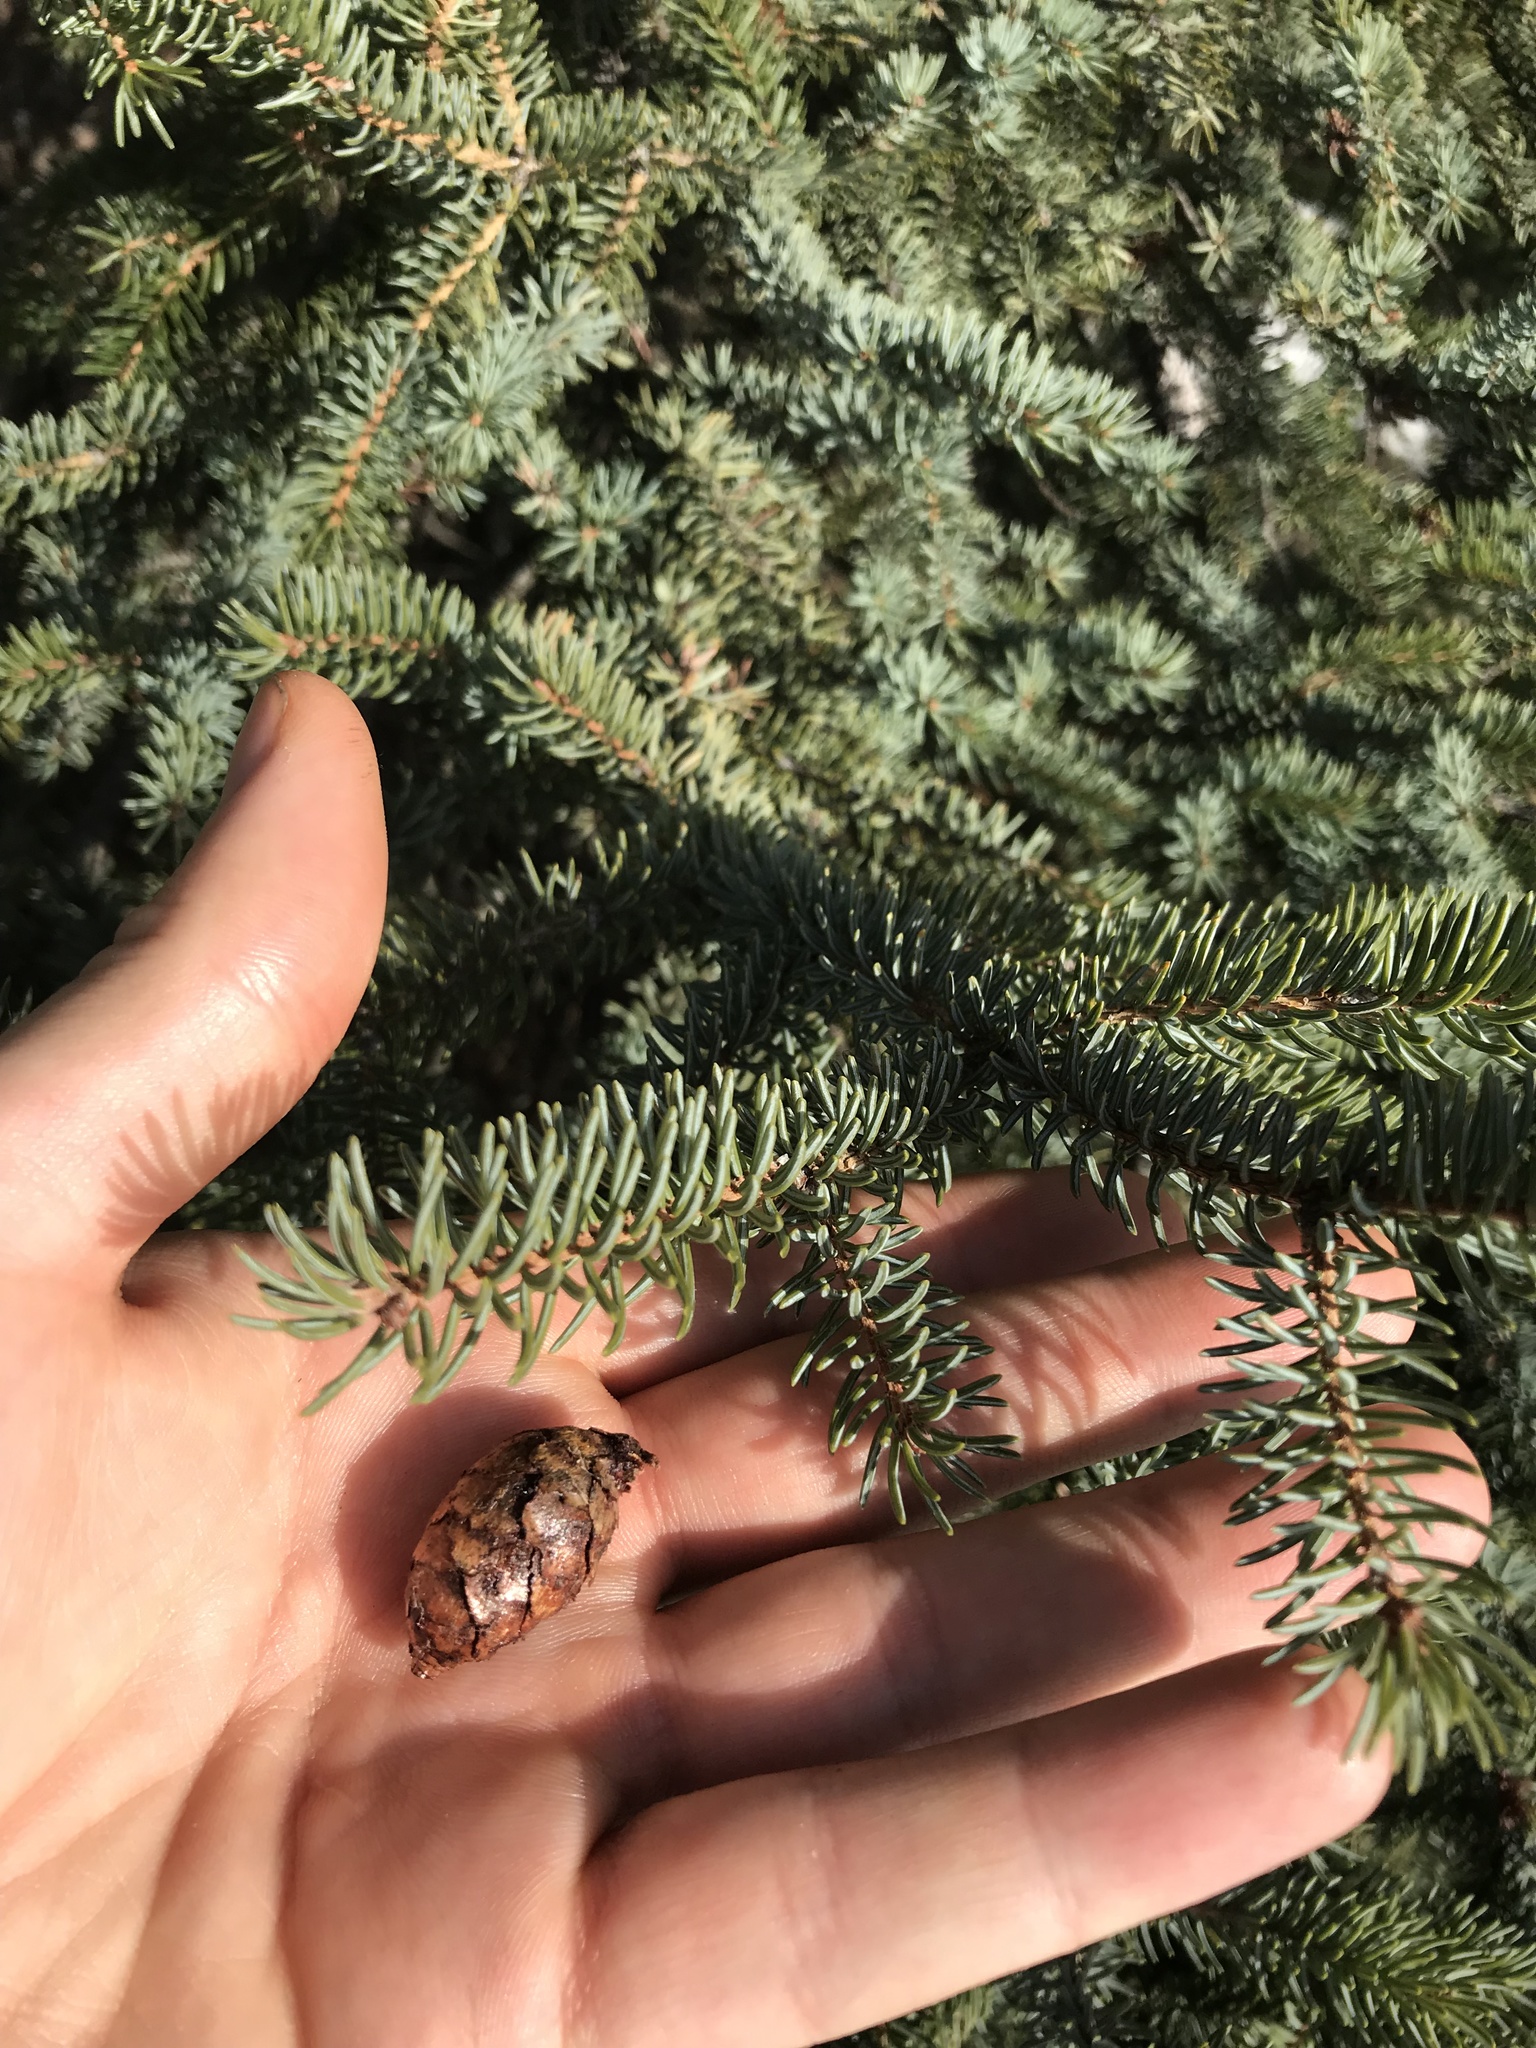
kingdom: Plantae
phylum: Tracheophyta
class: Pinopsida
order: Pinales
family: Pinaceae
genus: Picea
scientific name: Picea mariana
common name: Black spruce
